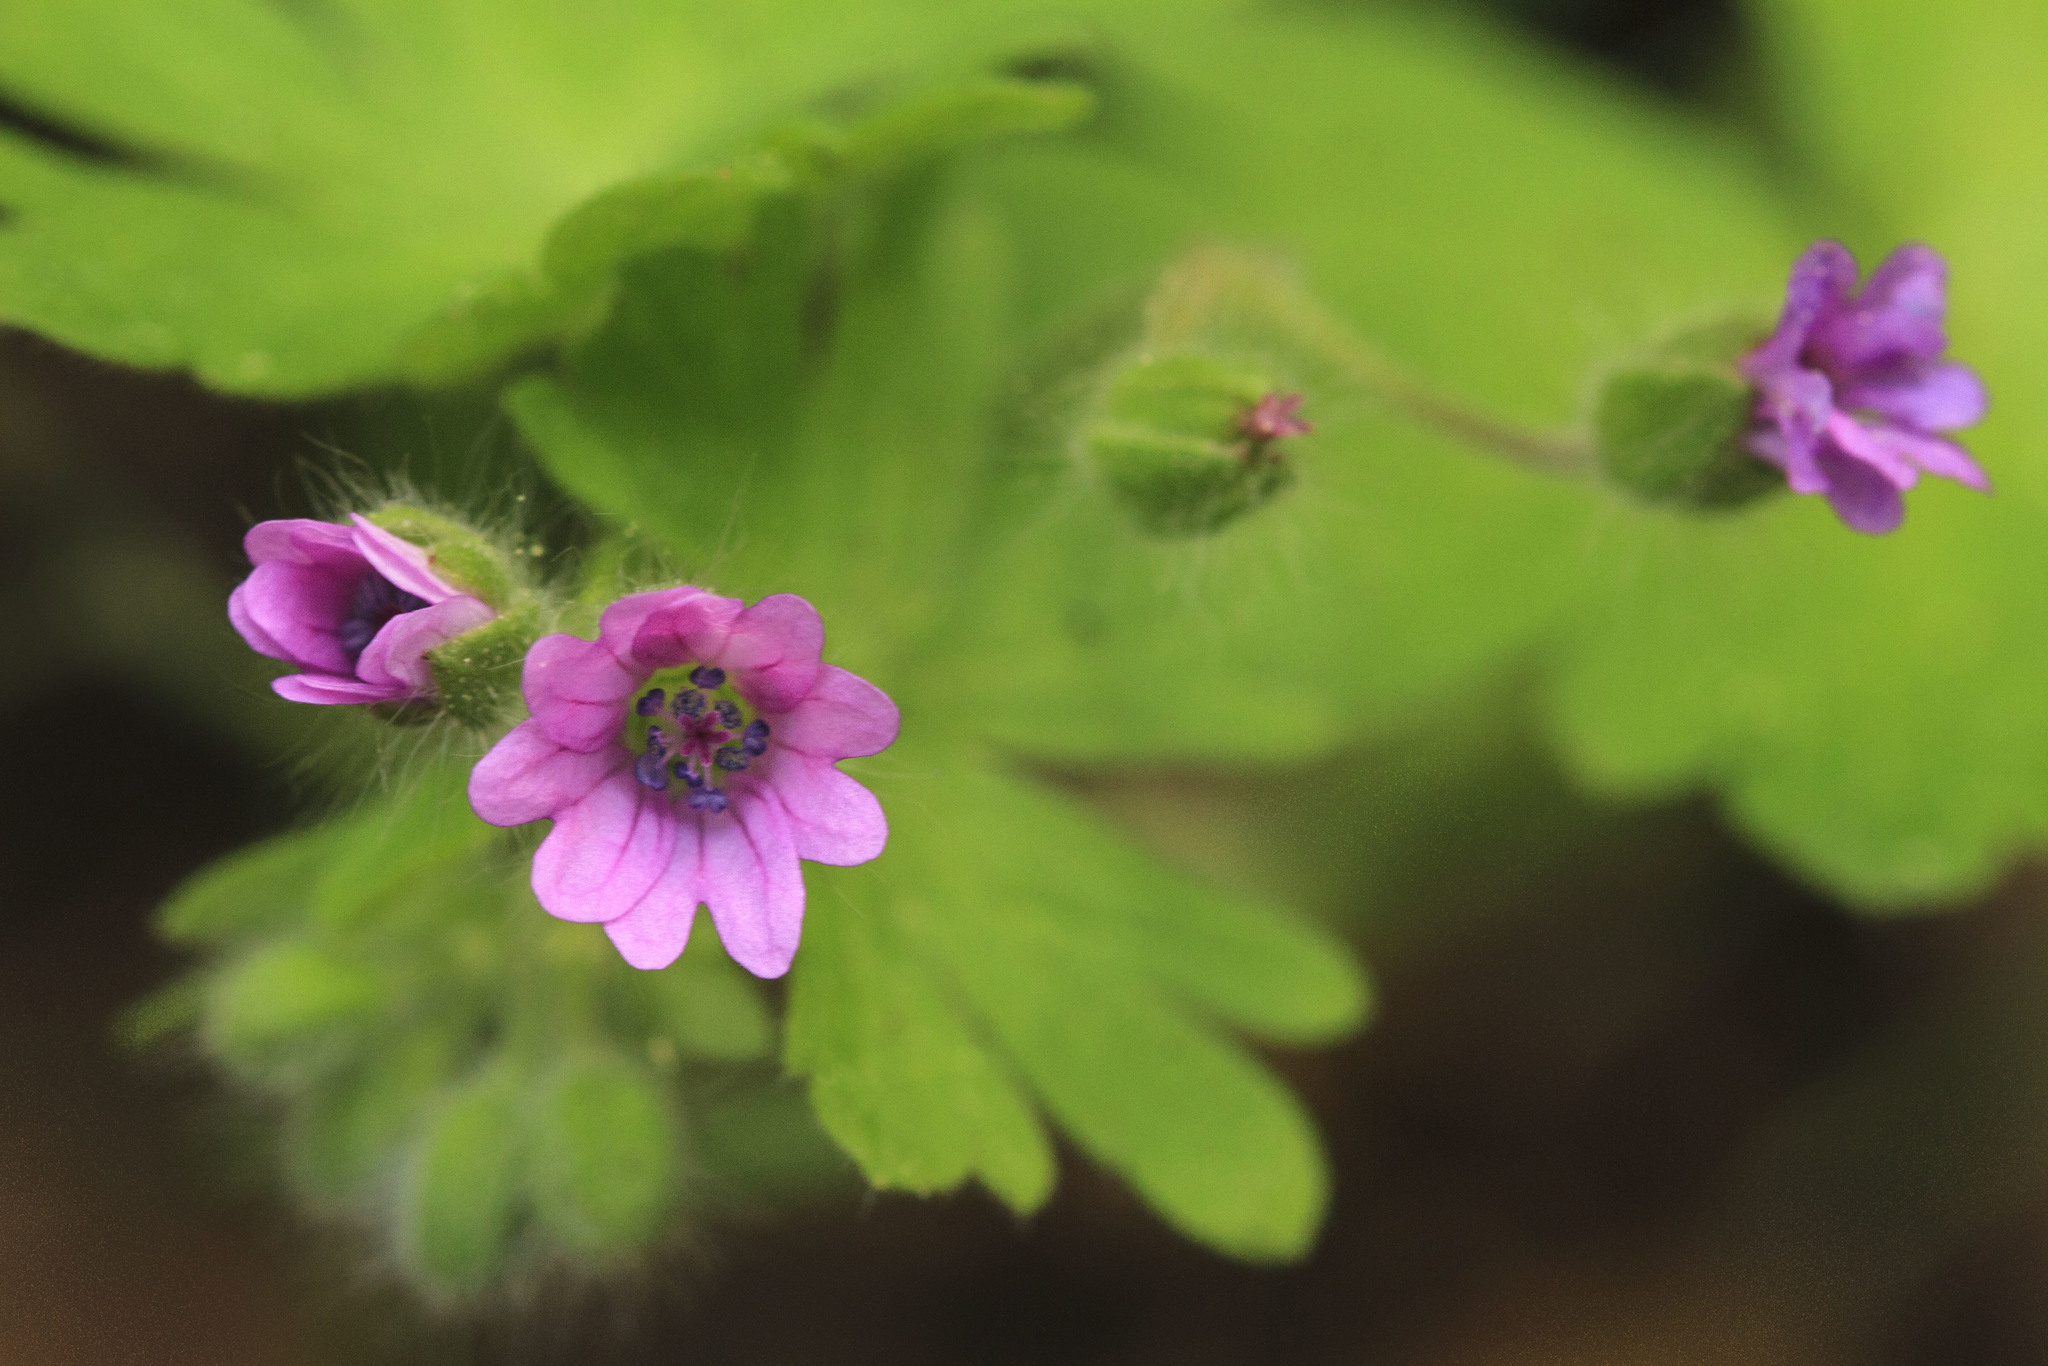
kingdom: Plantae
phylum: Tracheophyta
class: Magnoliopsida
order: Geraniales
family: Geraniaceae
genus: Geranium
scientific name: Geranium molle
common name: Dove's-foot crane's-bill
